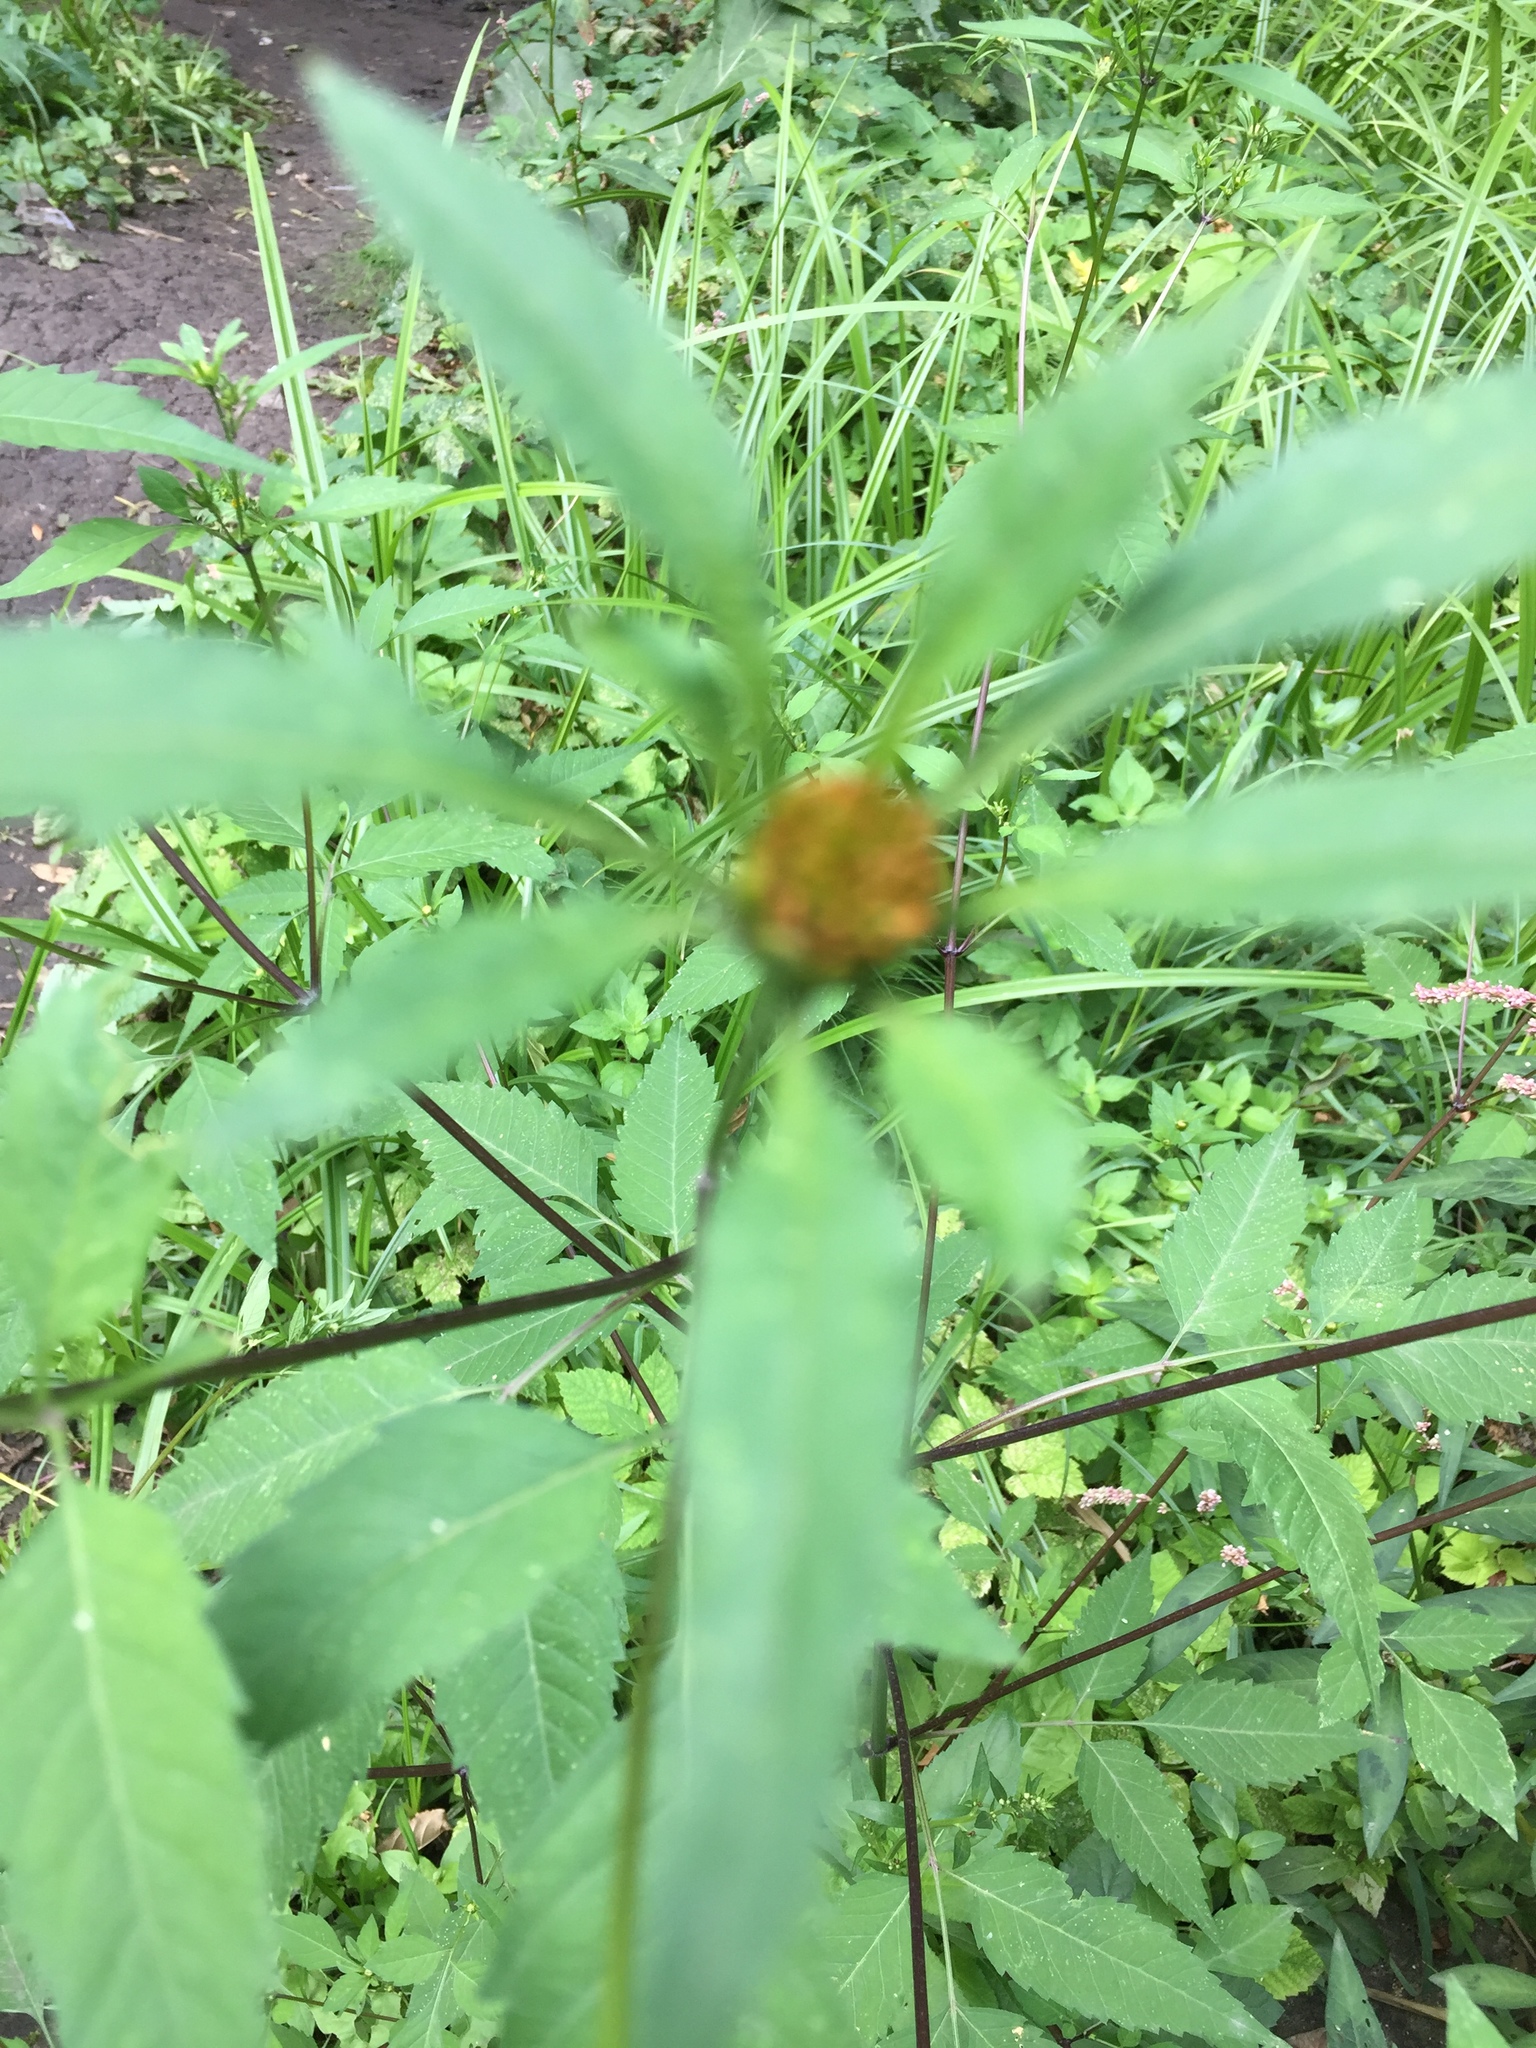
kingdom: Plantae
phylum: Tracheophyta
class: Magnoliopsida
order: Asterales
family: Asteraceae
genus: Bidens
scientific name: Bidens frondosa
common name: Beggarticks
